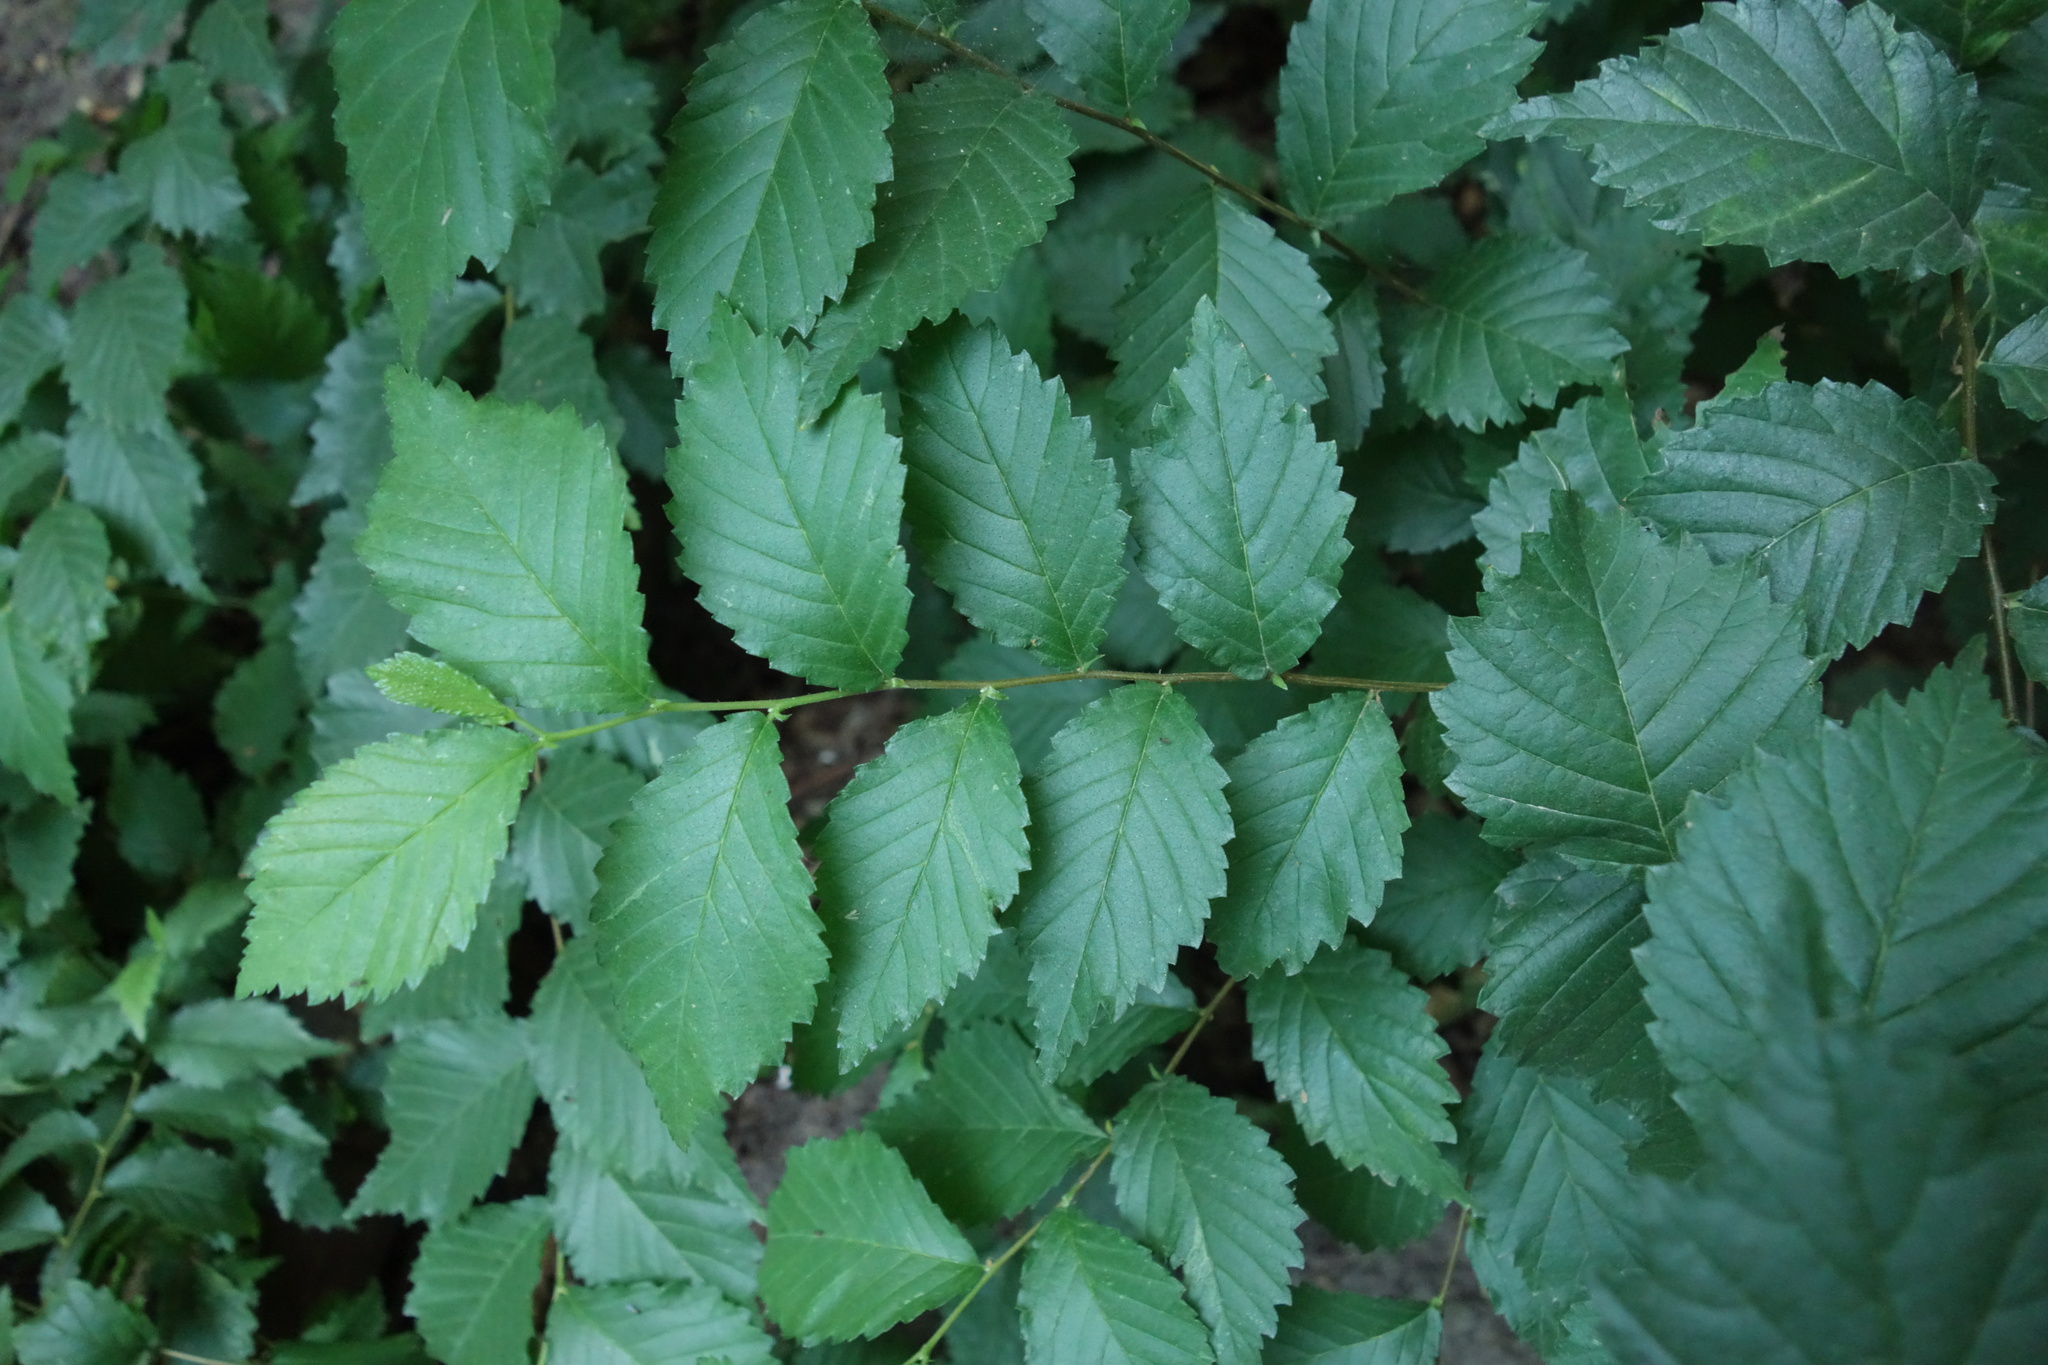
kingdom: Plantae
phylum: Tracheophyta
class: Magnoliopsida
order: Rosales
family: Ulmaceae
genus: Ulmus
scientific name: Ulmus pumila
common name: Siberian elm
